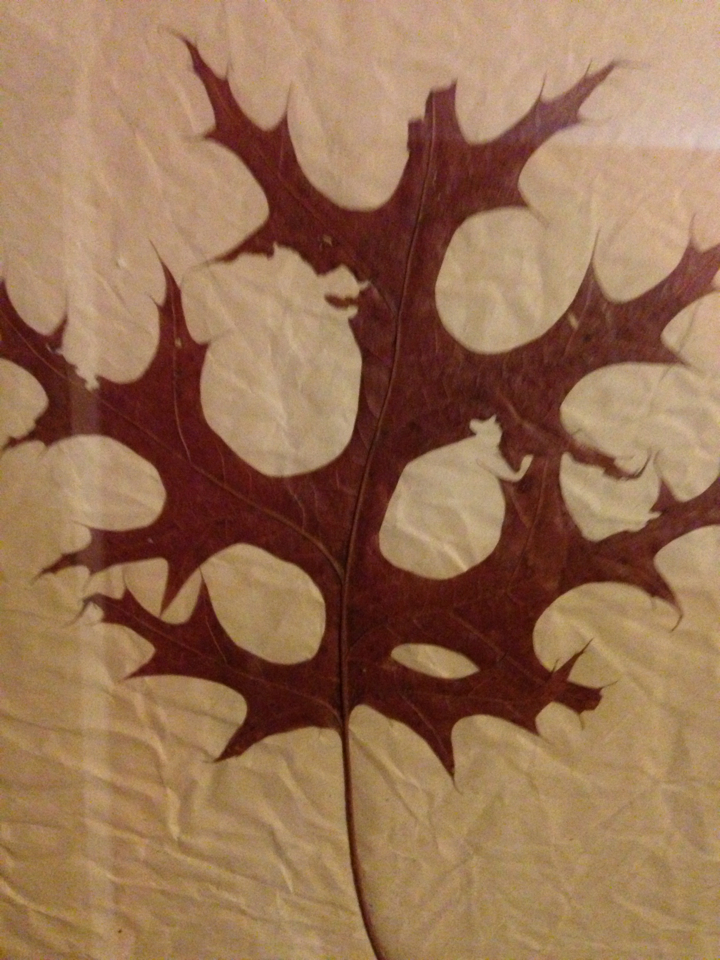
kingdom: Plantae
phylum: Tracheophyta
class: Magnoliopsida
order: Fagales
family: Fagaceae
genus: Quercus
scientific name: Quercus coccinea
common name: Scarlet oak
